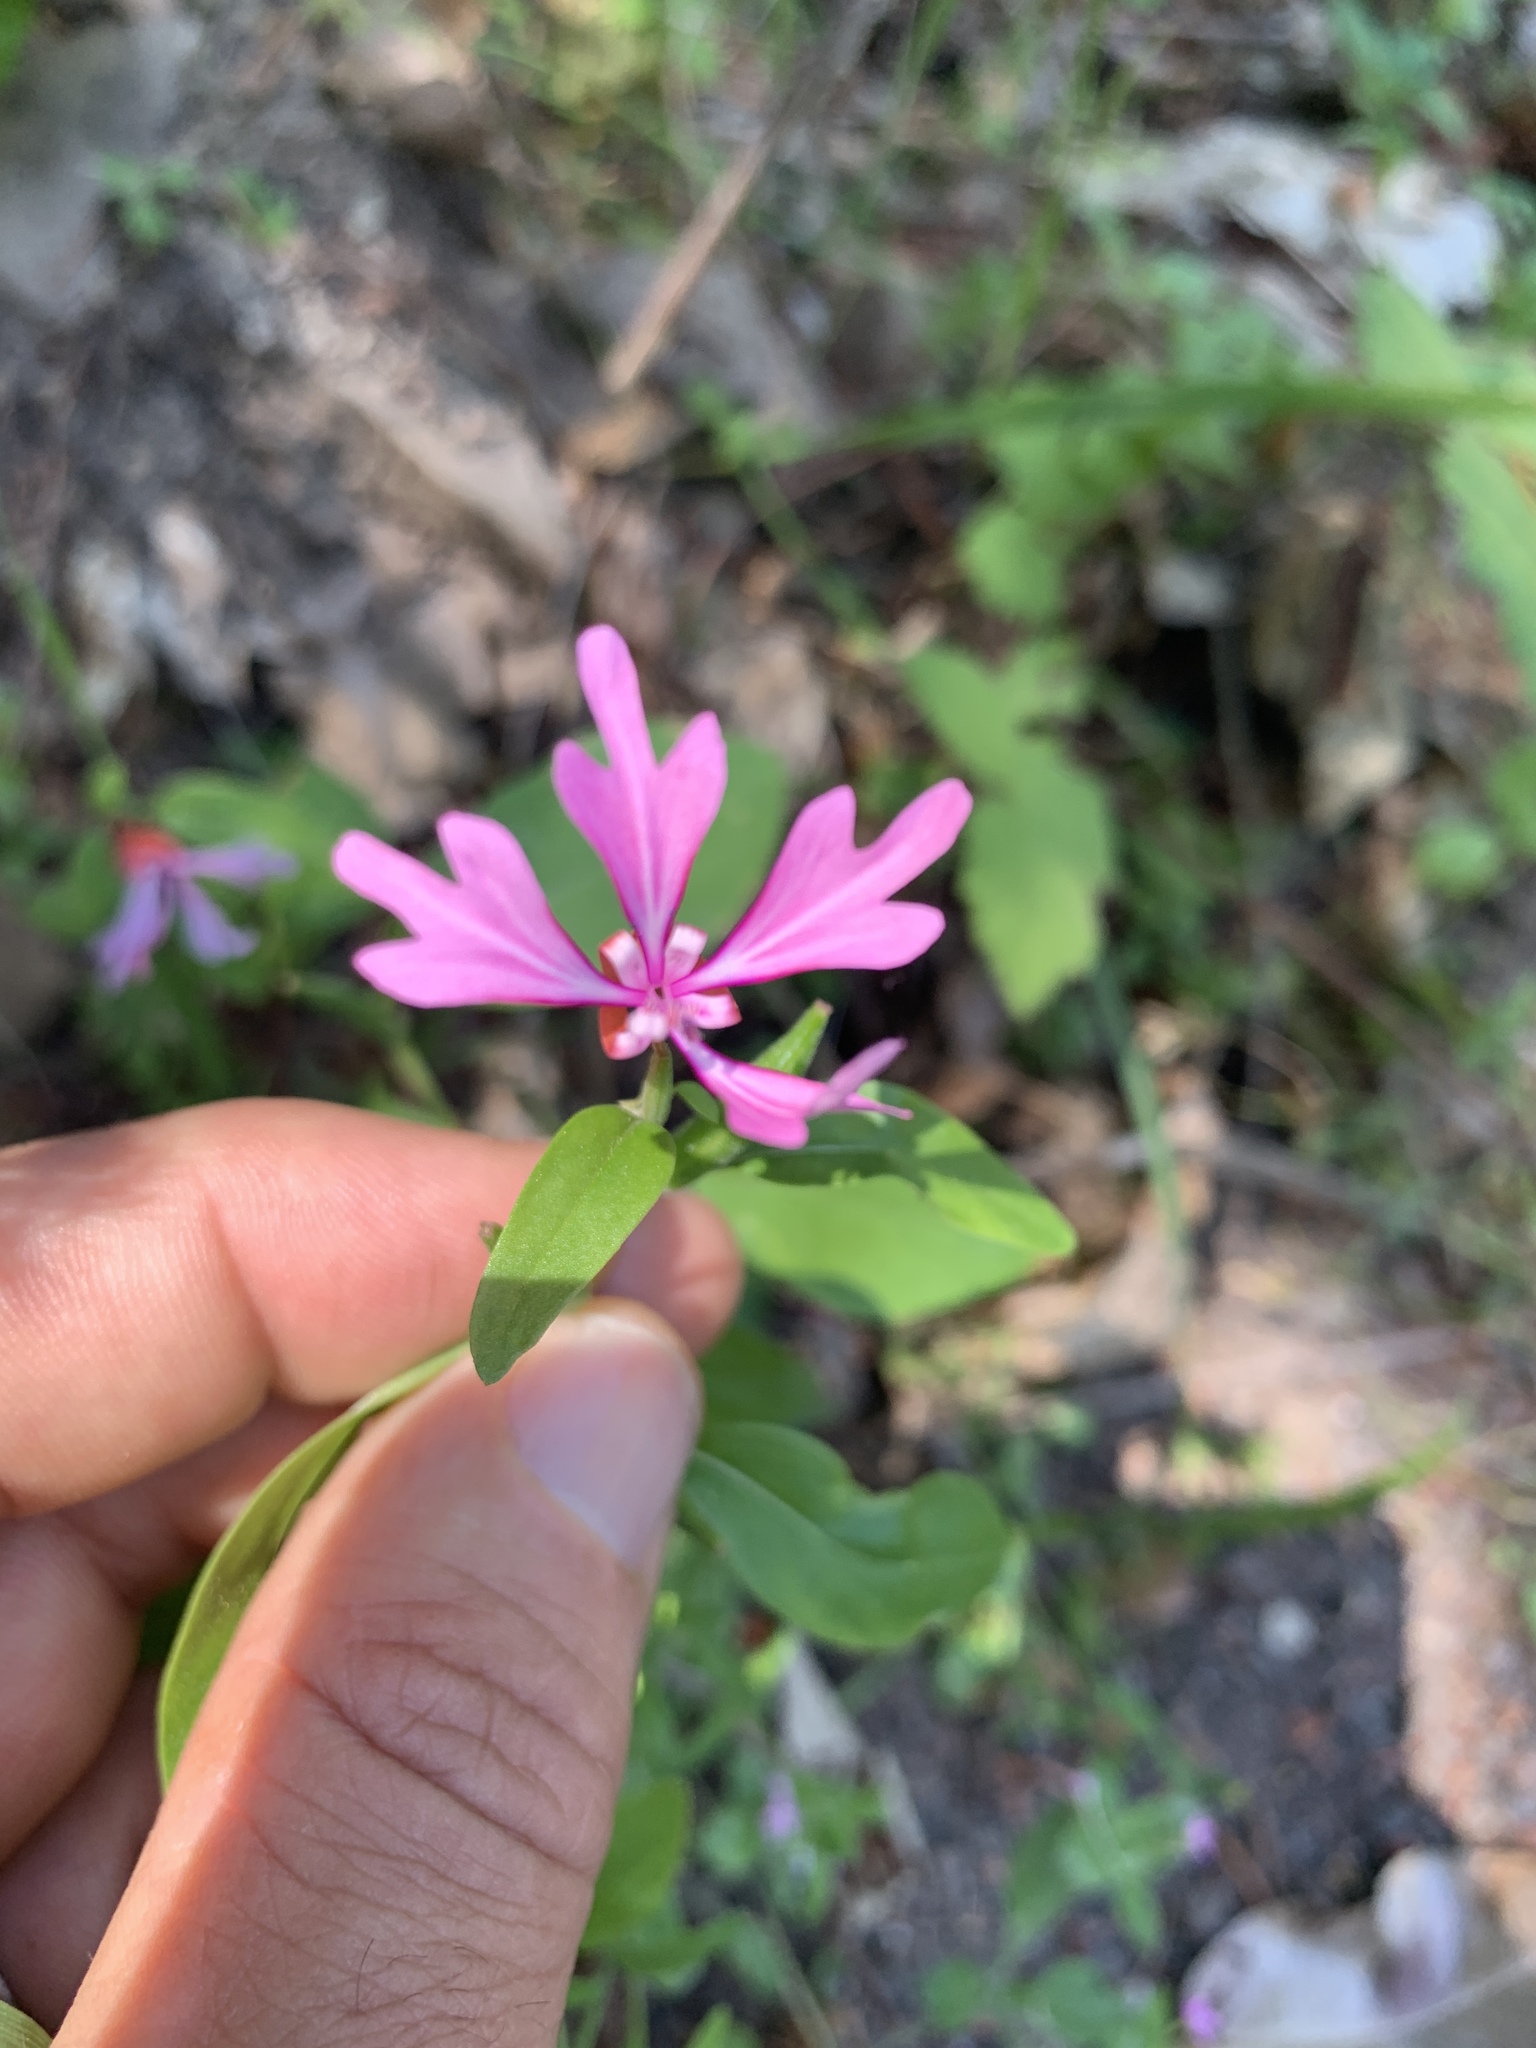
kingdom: Plantae
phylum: Tracheophyta
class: Magnoliopsida
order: Myrtales
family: Onagraceae
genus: Clarkia
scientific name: Clarkia concinna
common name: Red-ribbons
